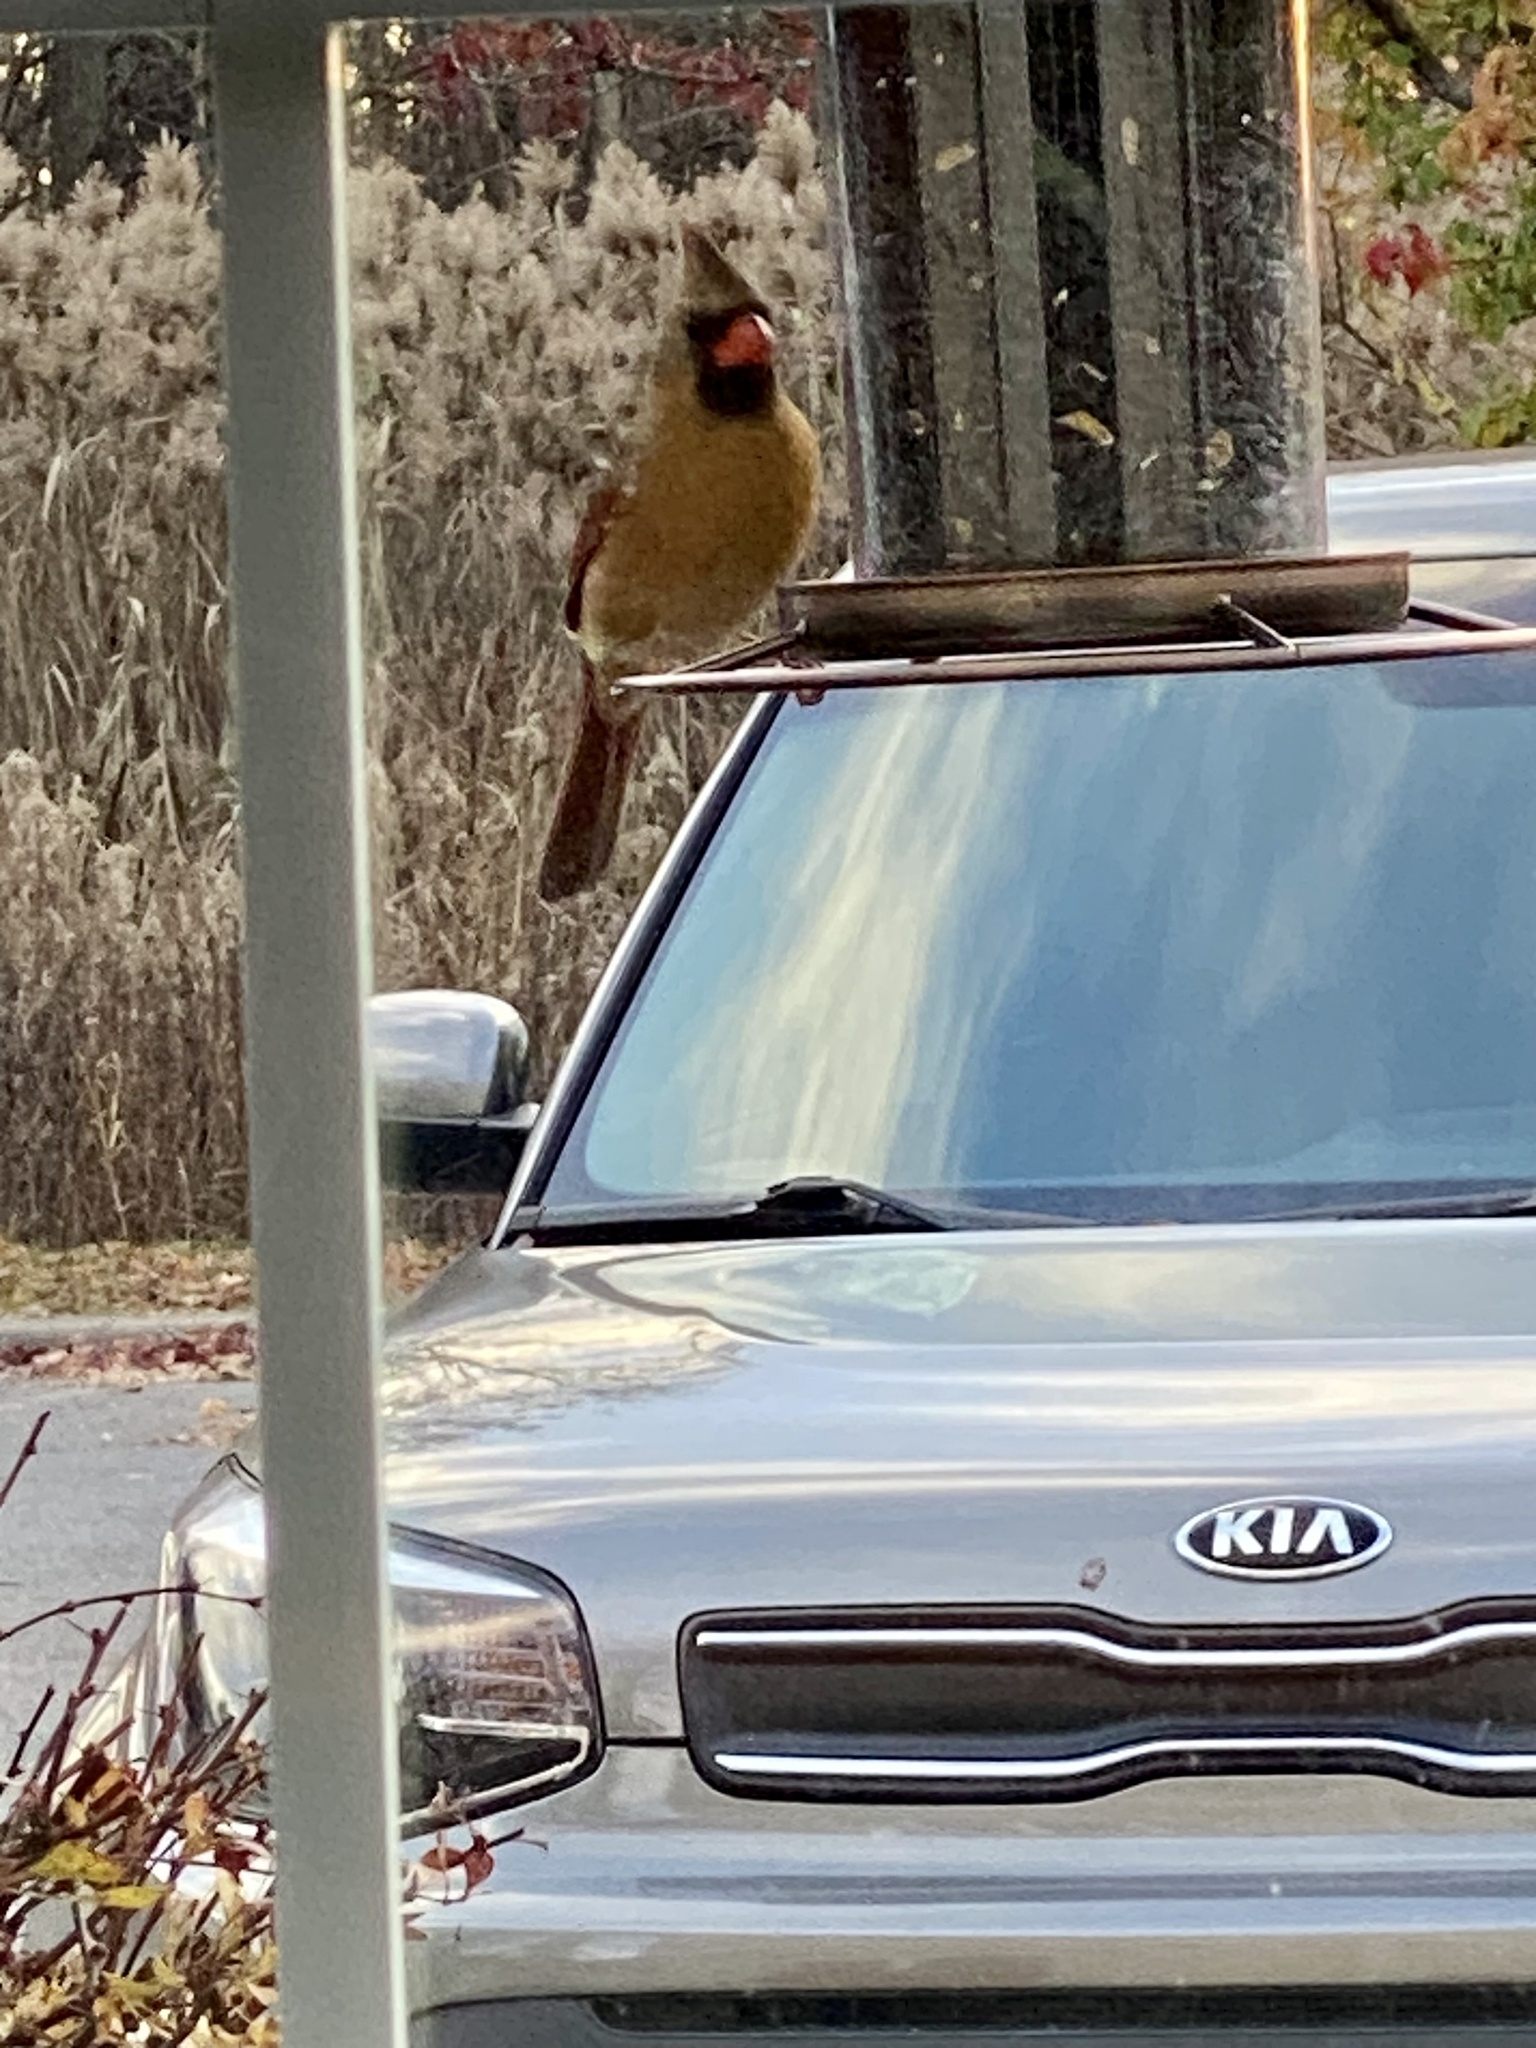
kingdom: Animalia
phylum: Chordata
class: Aves
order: Passeriformes
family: Cardinalidae
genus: Cardinalis
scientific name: Cardinalis cardinalis
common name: Northern cardinal
